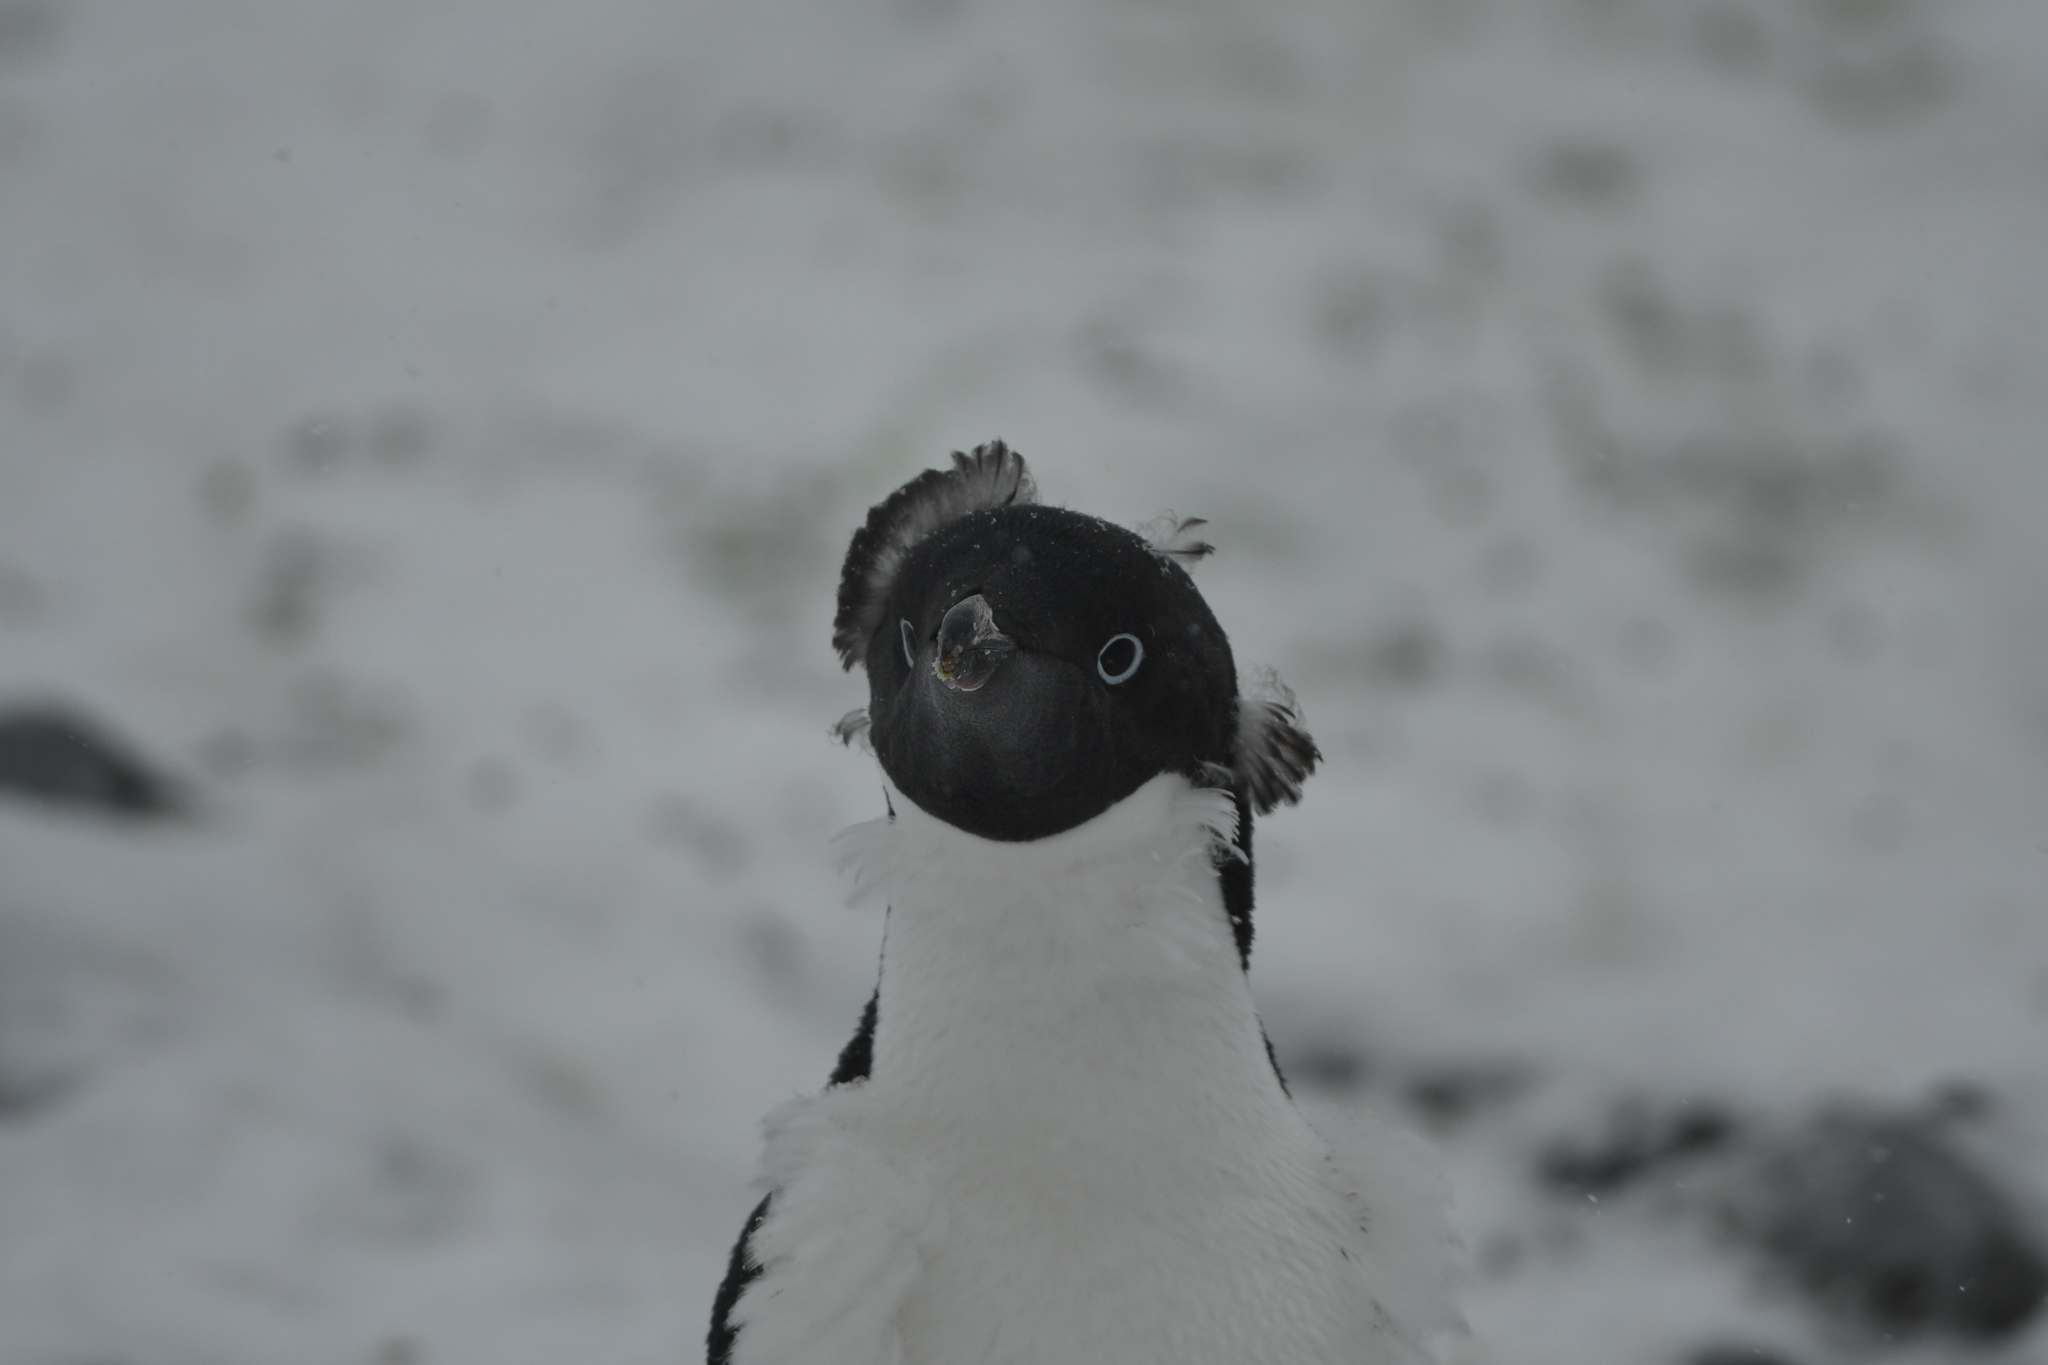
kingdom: Animalia
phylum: Chordata
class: Aves
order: Sphenisciformes
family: Spheniscidae
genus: Pygoscelis
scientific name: Pygoscelis adeliae
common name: Adelie penguin
